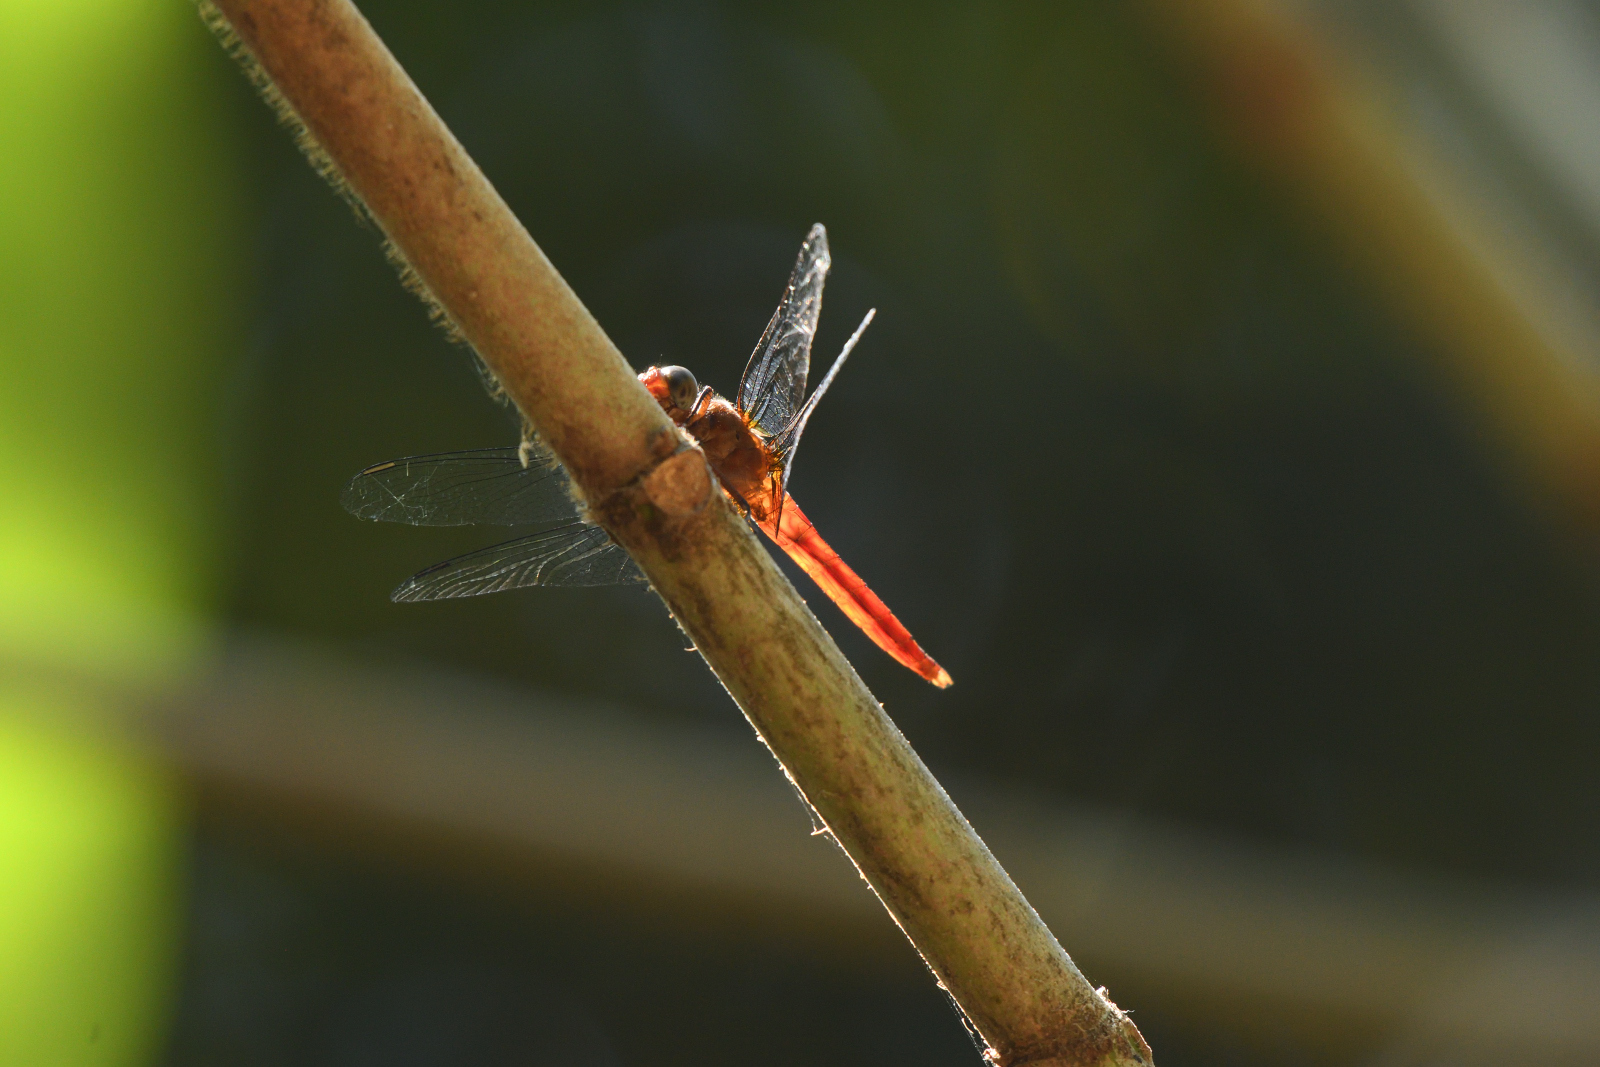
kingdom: Animalia
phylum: Arthropoda
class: Insecta
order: Odonata
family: Libellulidae
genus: Orthetrum
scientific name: Orthetrum chrysis
